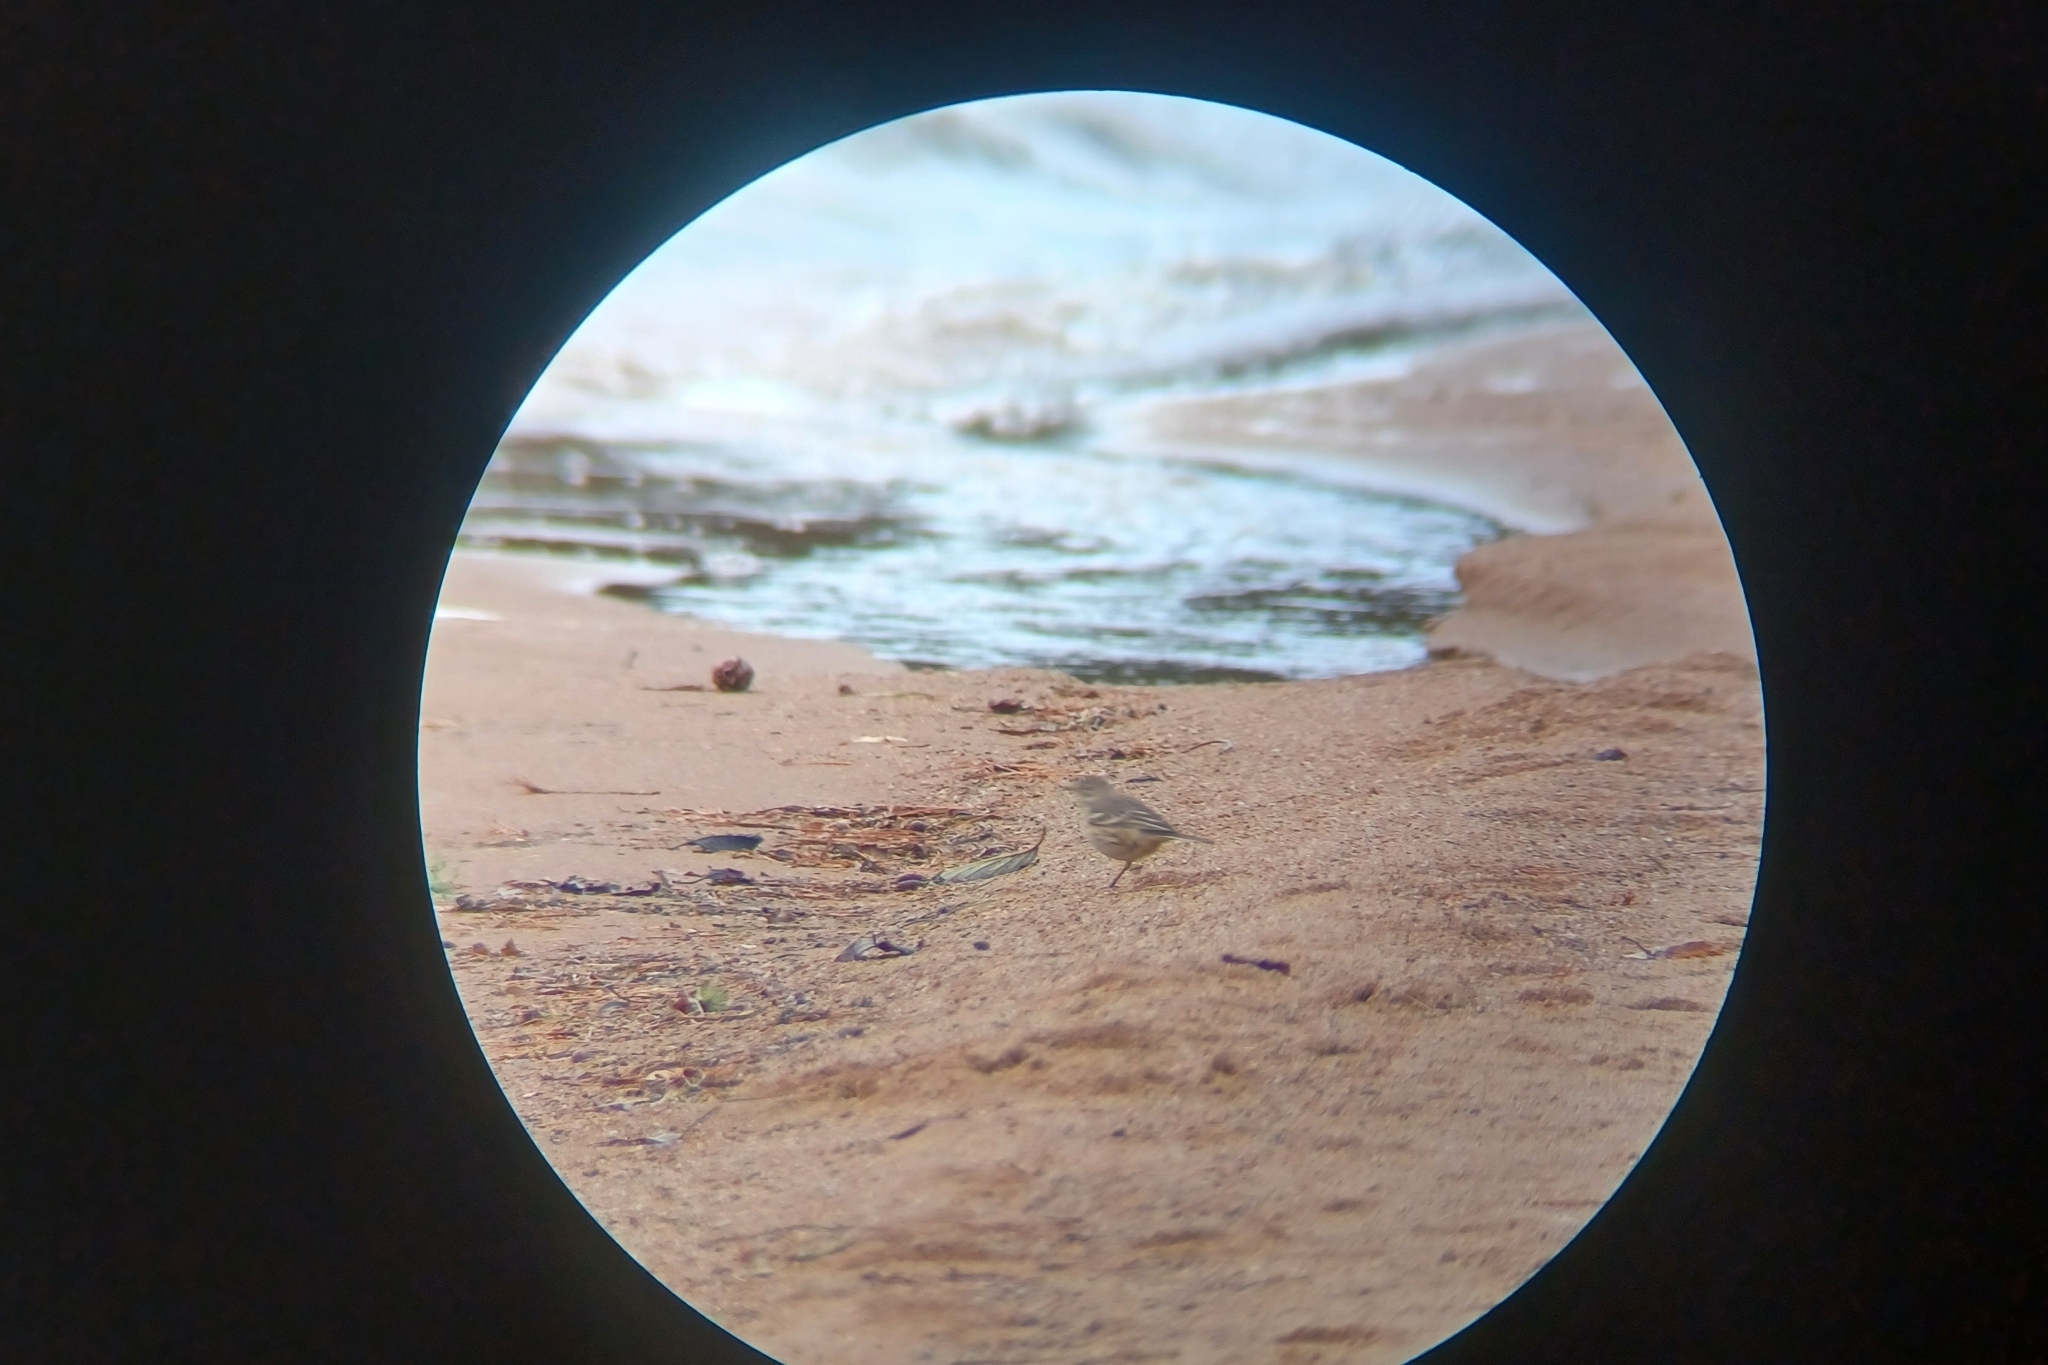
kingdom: Animalia
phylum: Chordata
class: Aves
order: Passeriformes
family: Motacillidae
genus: Anthus
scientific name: Anthus rubescens
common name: Buff-bellied pipit
